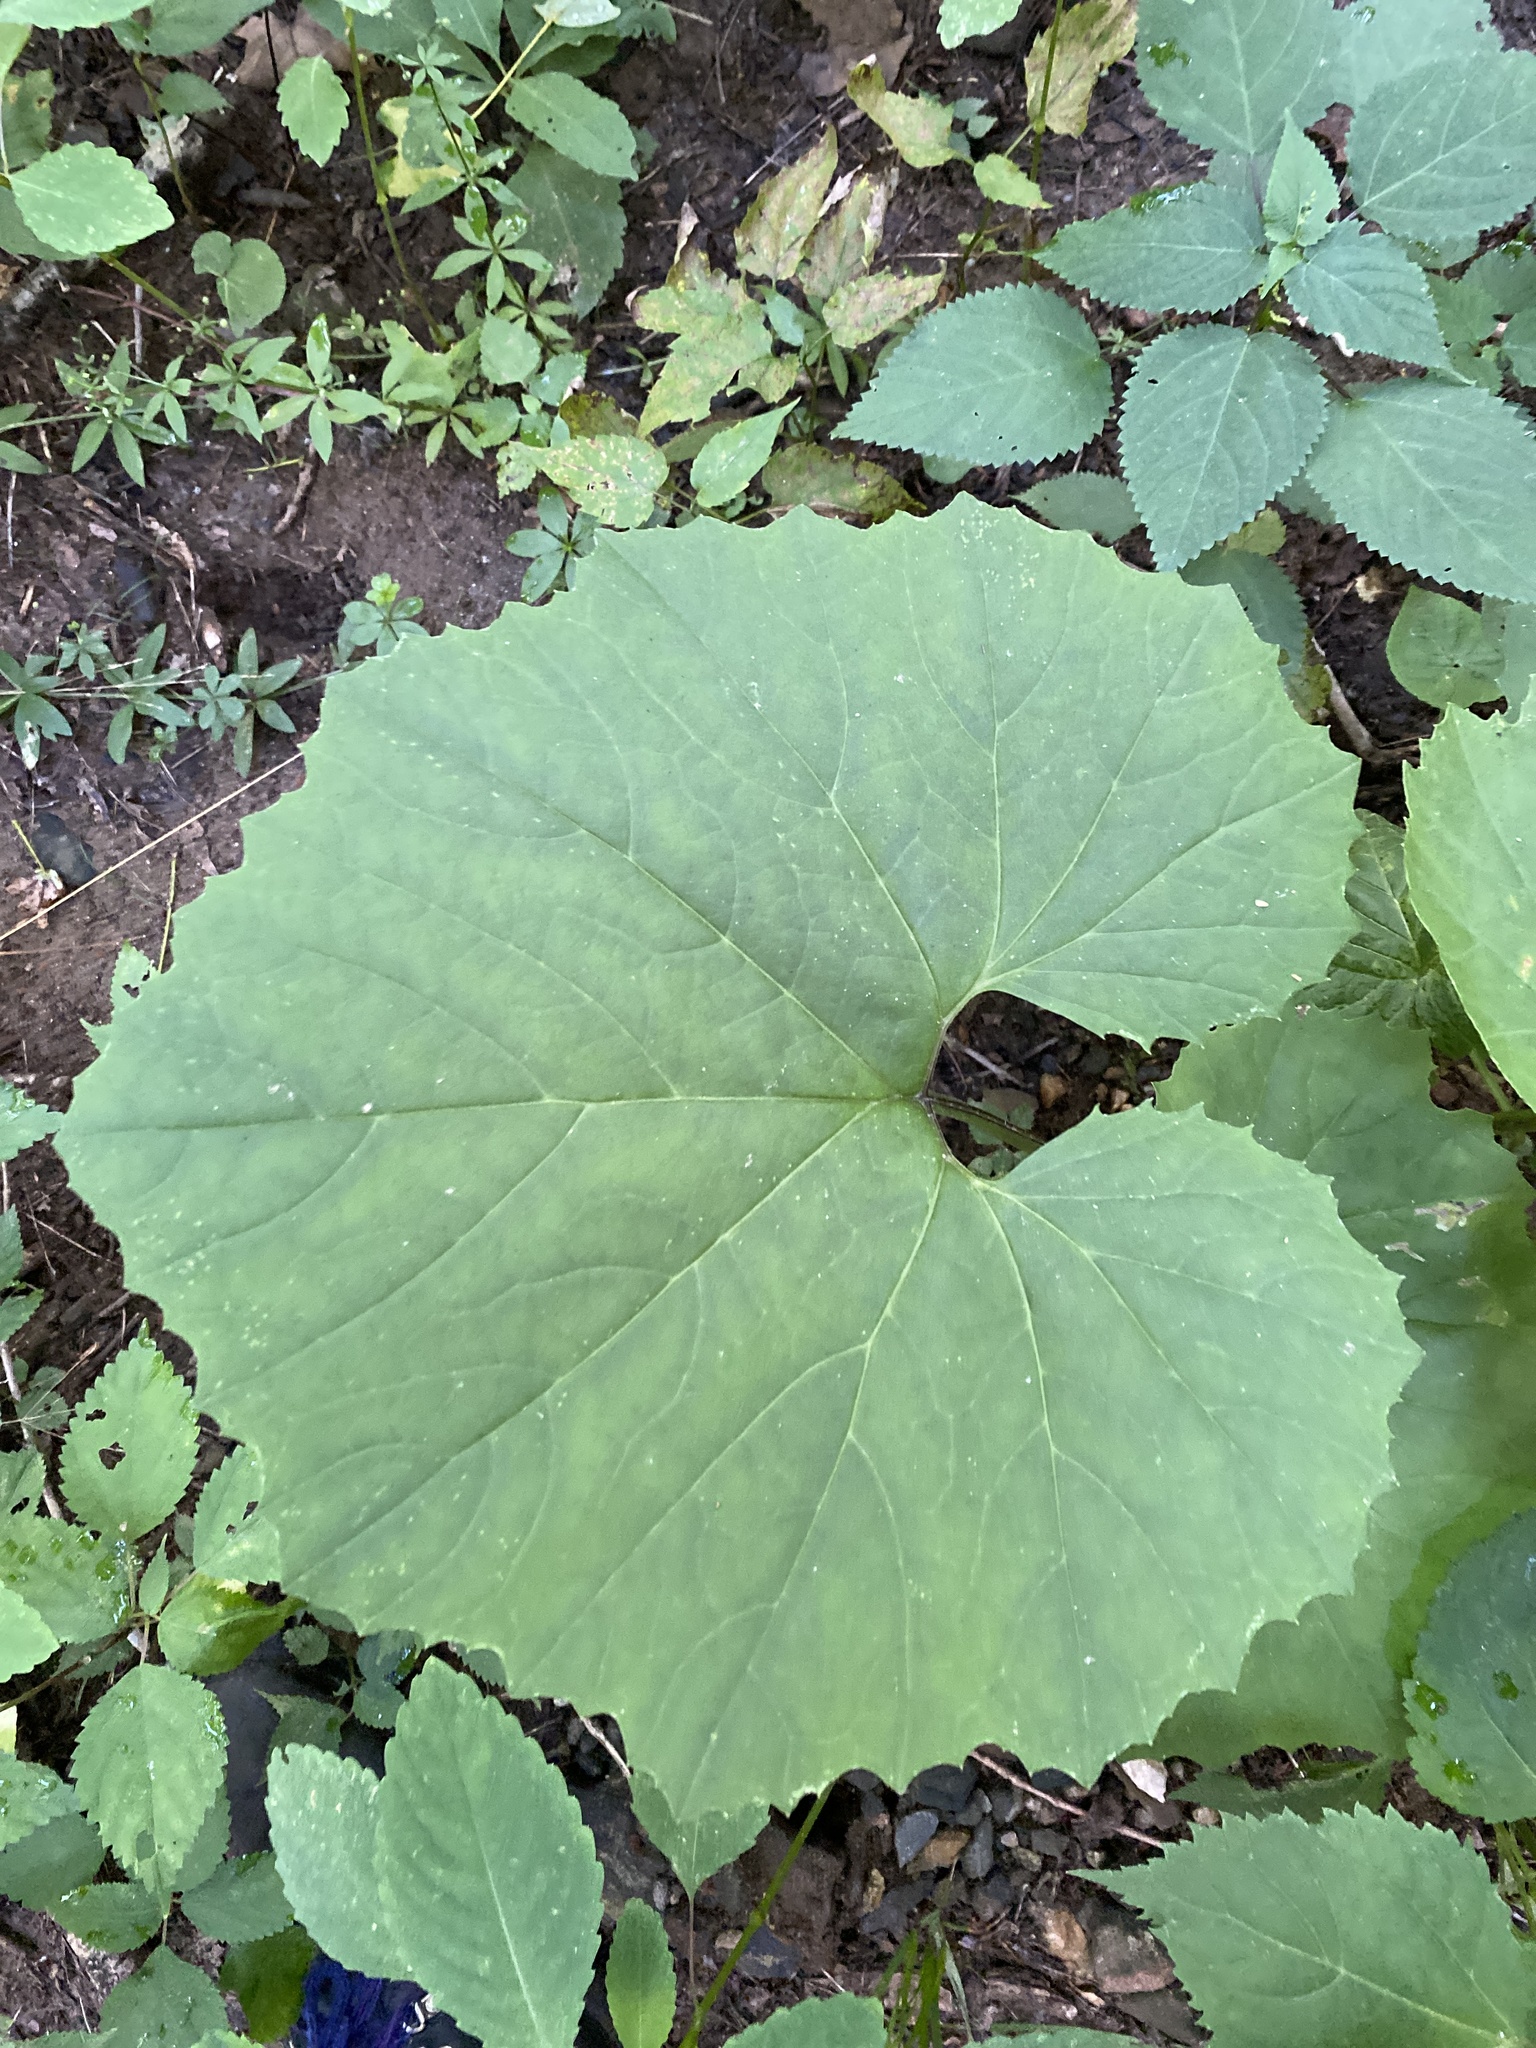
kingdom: Plantae
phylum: Tracheophyta
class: Magnoliopsida
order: Asterales
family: Asteraceae
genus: Arnoglossum
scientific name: Arnoglossum reniforme
